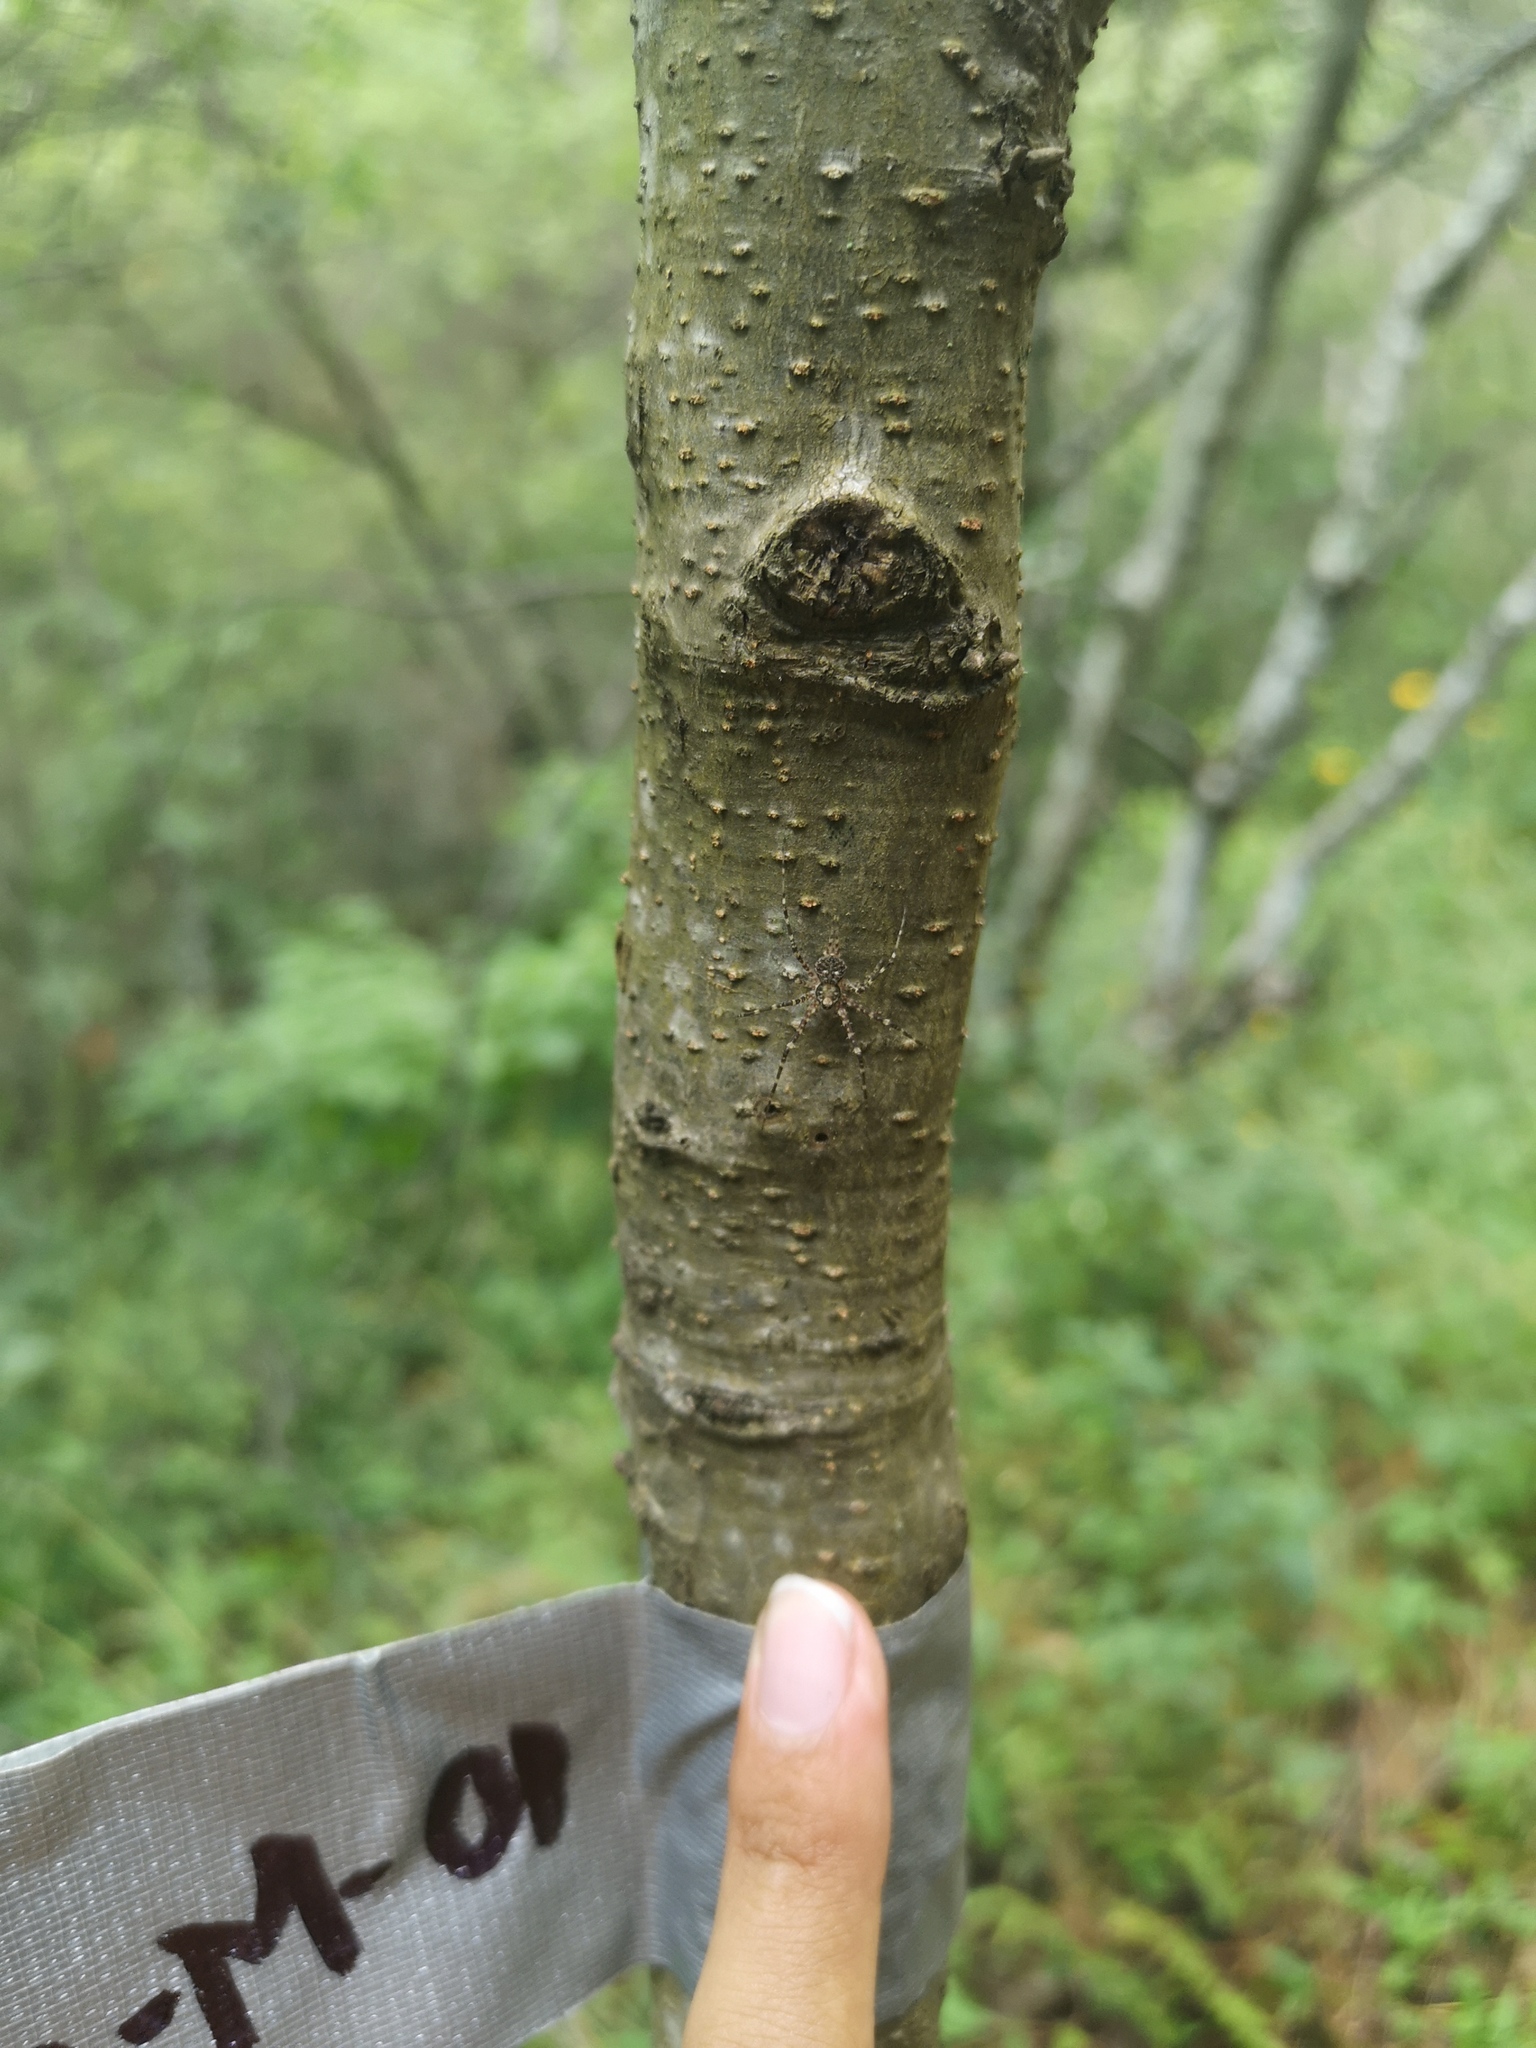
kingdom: Animalia
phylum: Arthropoda
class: Arachnida
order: Araneae
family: Hersiliidae
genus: Neotama
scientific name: Neotama mexicana
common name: Tree trunk spiders
